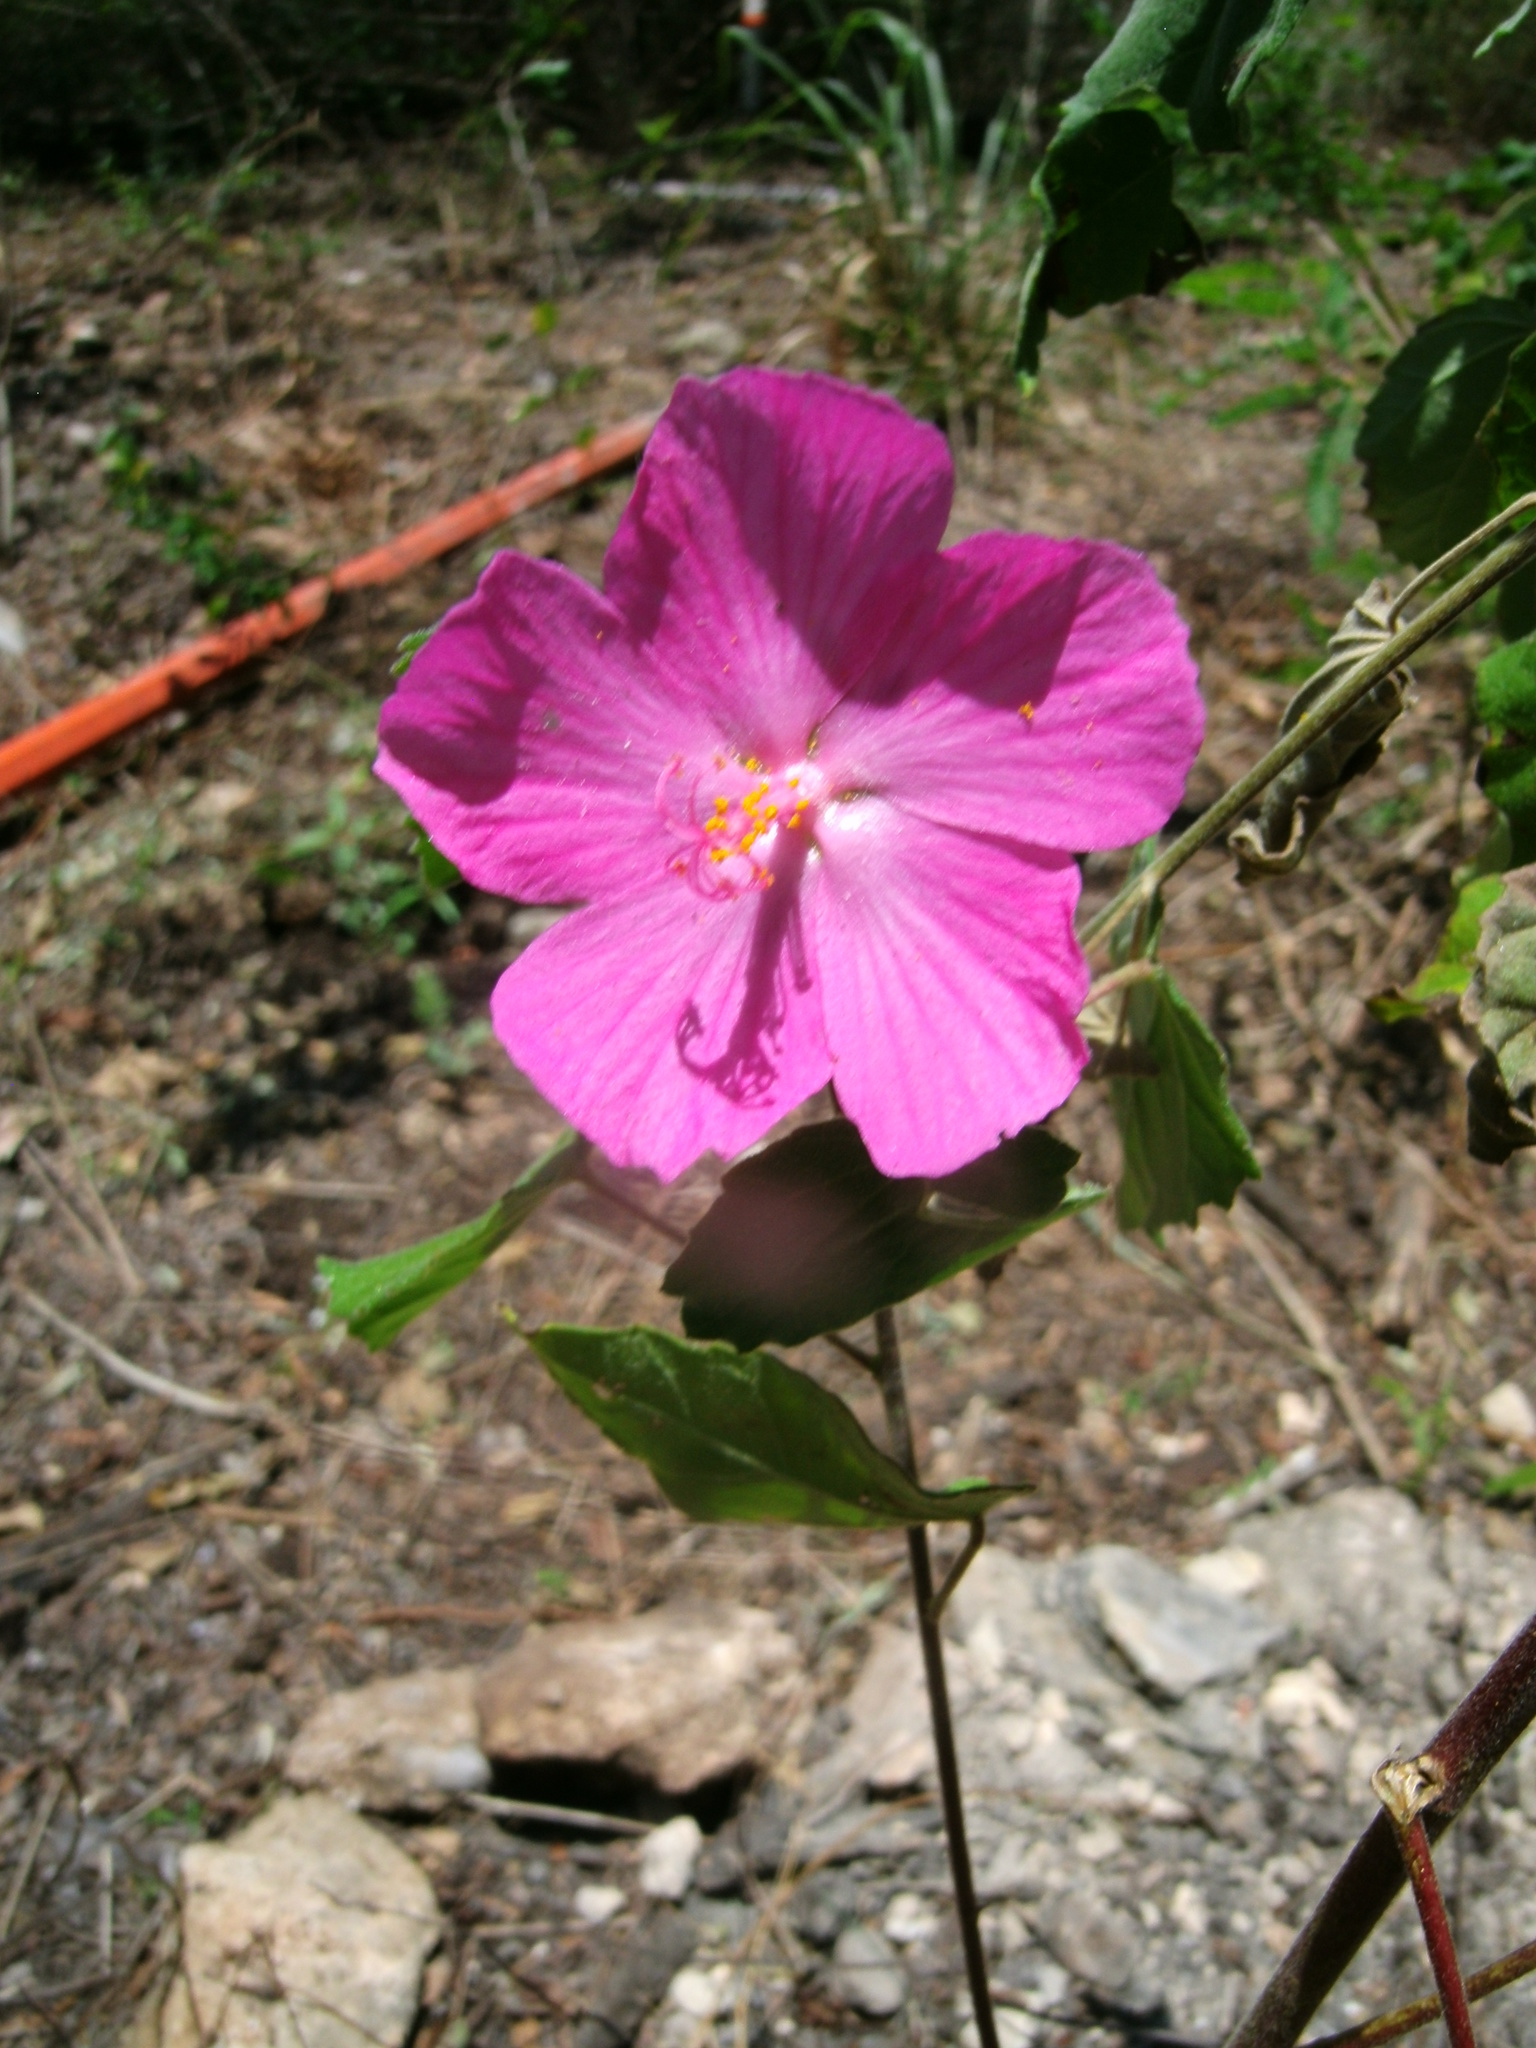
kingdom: Plantae
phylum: Tracheophyta
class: Magnoliopsida
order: Malvales
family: Malvaceae
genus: Pavonia
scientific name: Pavonia lasiopetala
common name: Texas swamp-mallow
